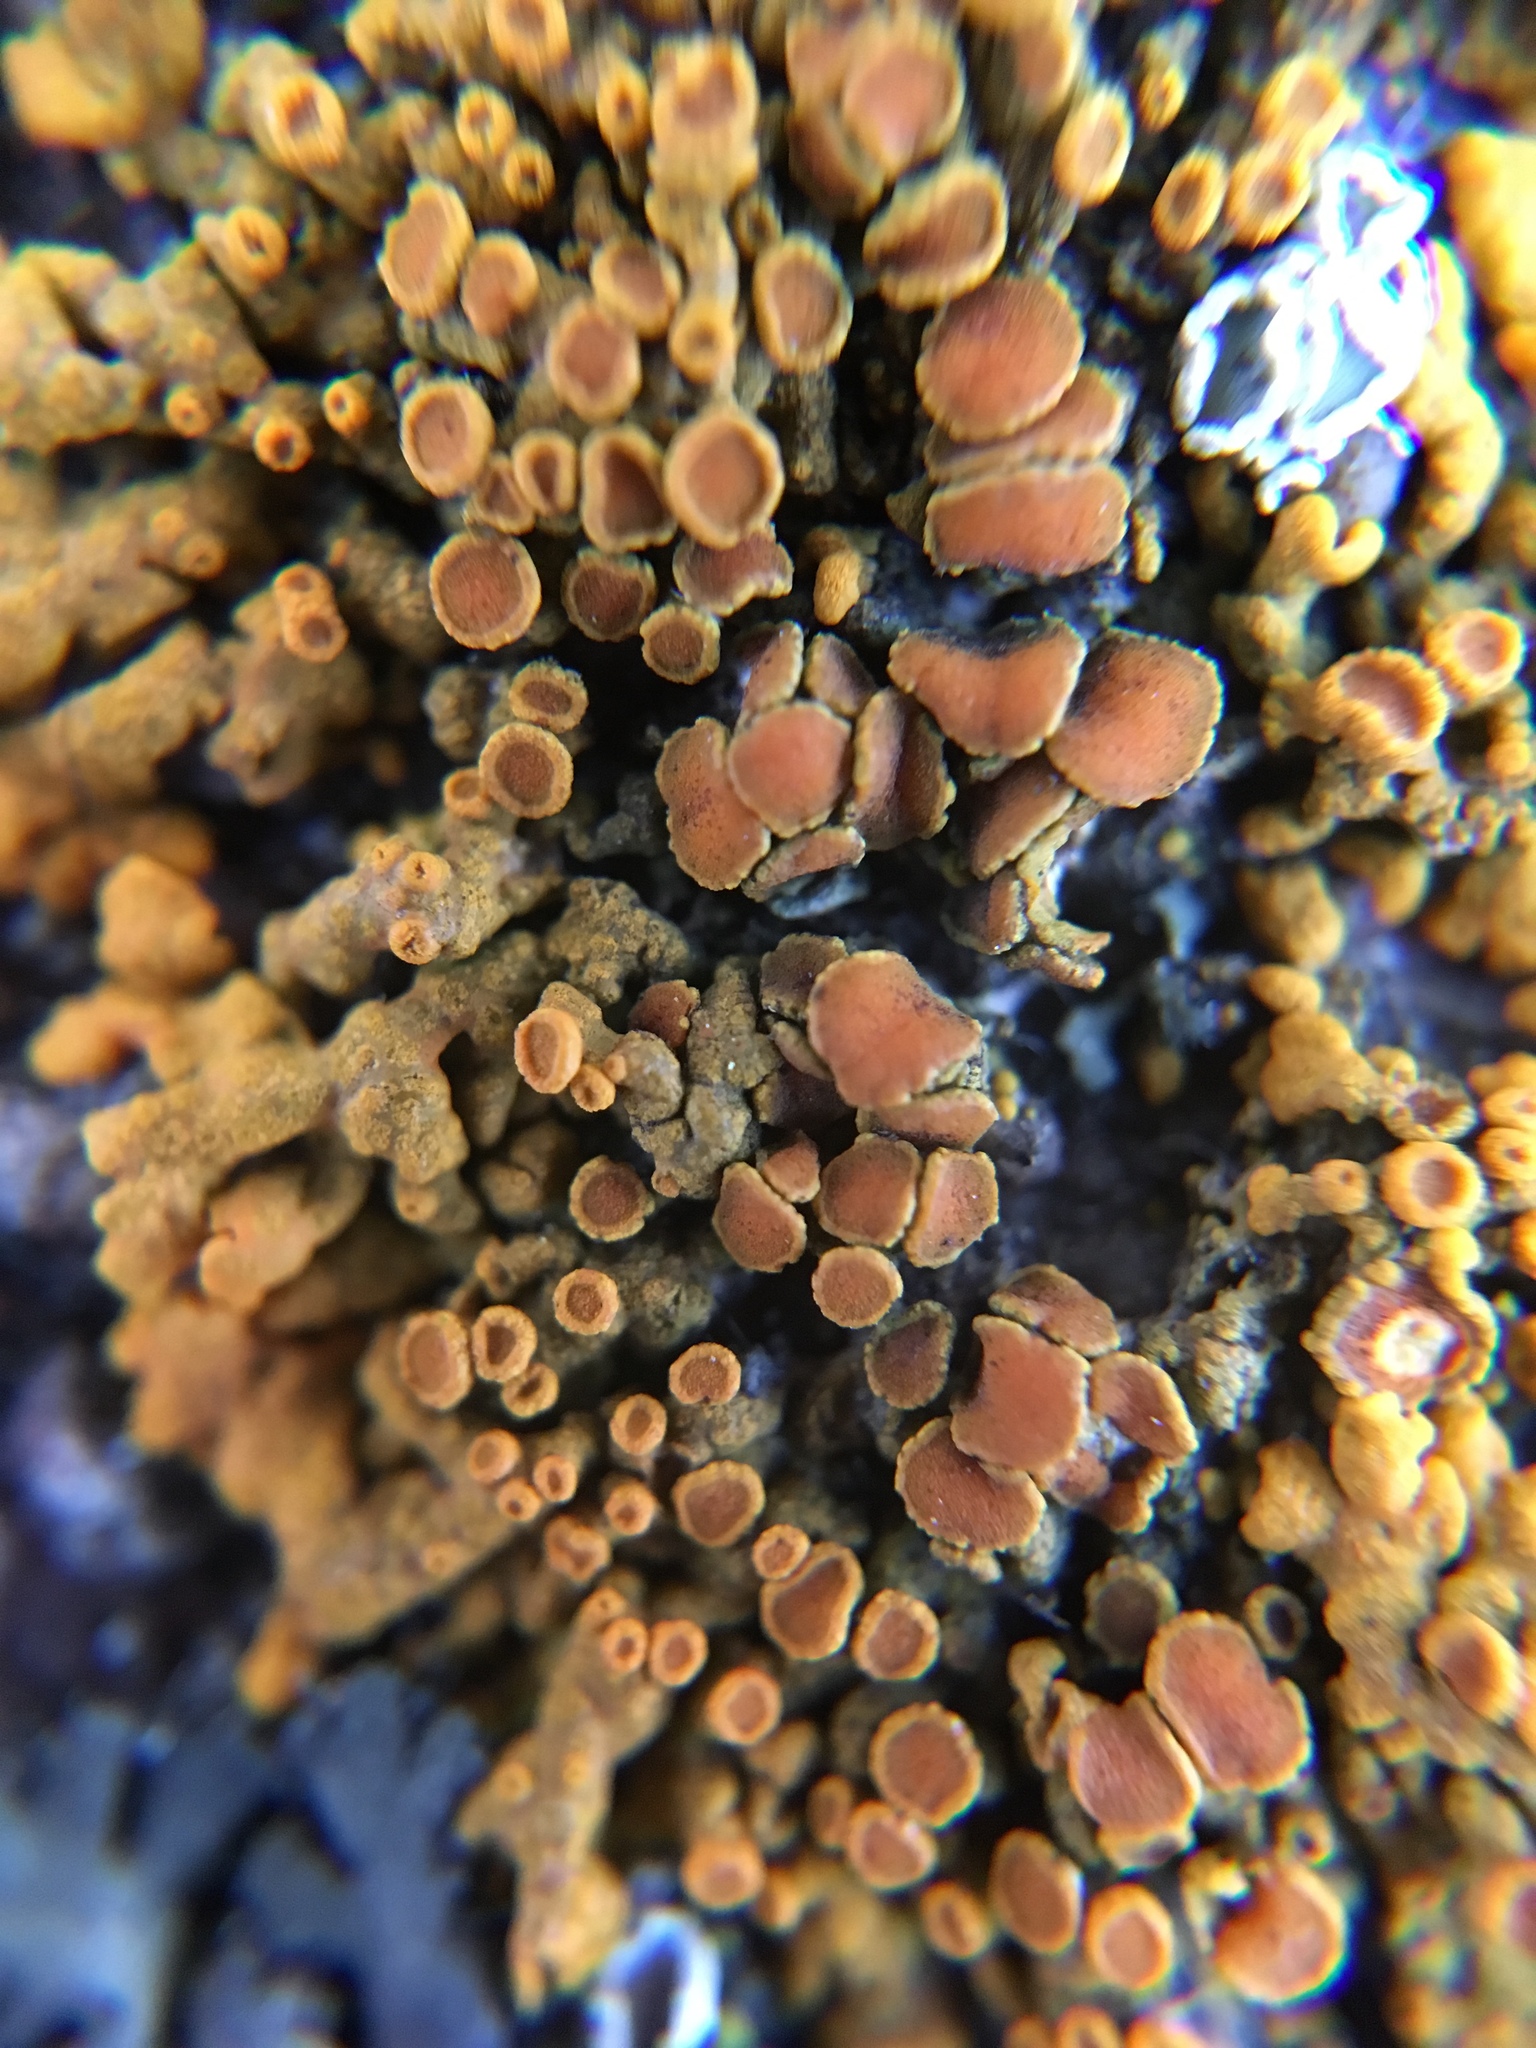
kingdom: Fungi
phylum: Ascomycota
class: Lecanoromycetes
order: Teloschistales
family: Teloschistaceae
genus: Xanthoria
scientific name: Xanthoria elegans
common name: Elegant sunburst lichen
